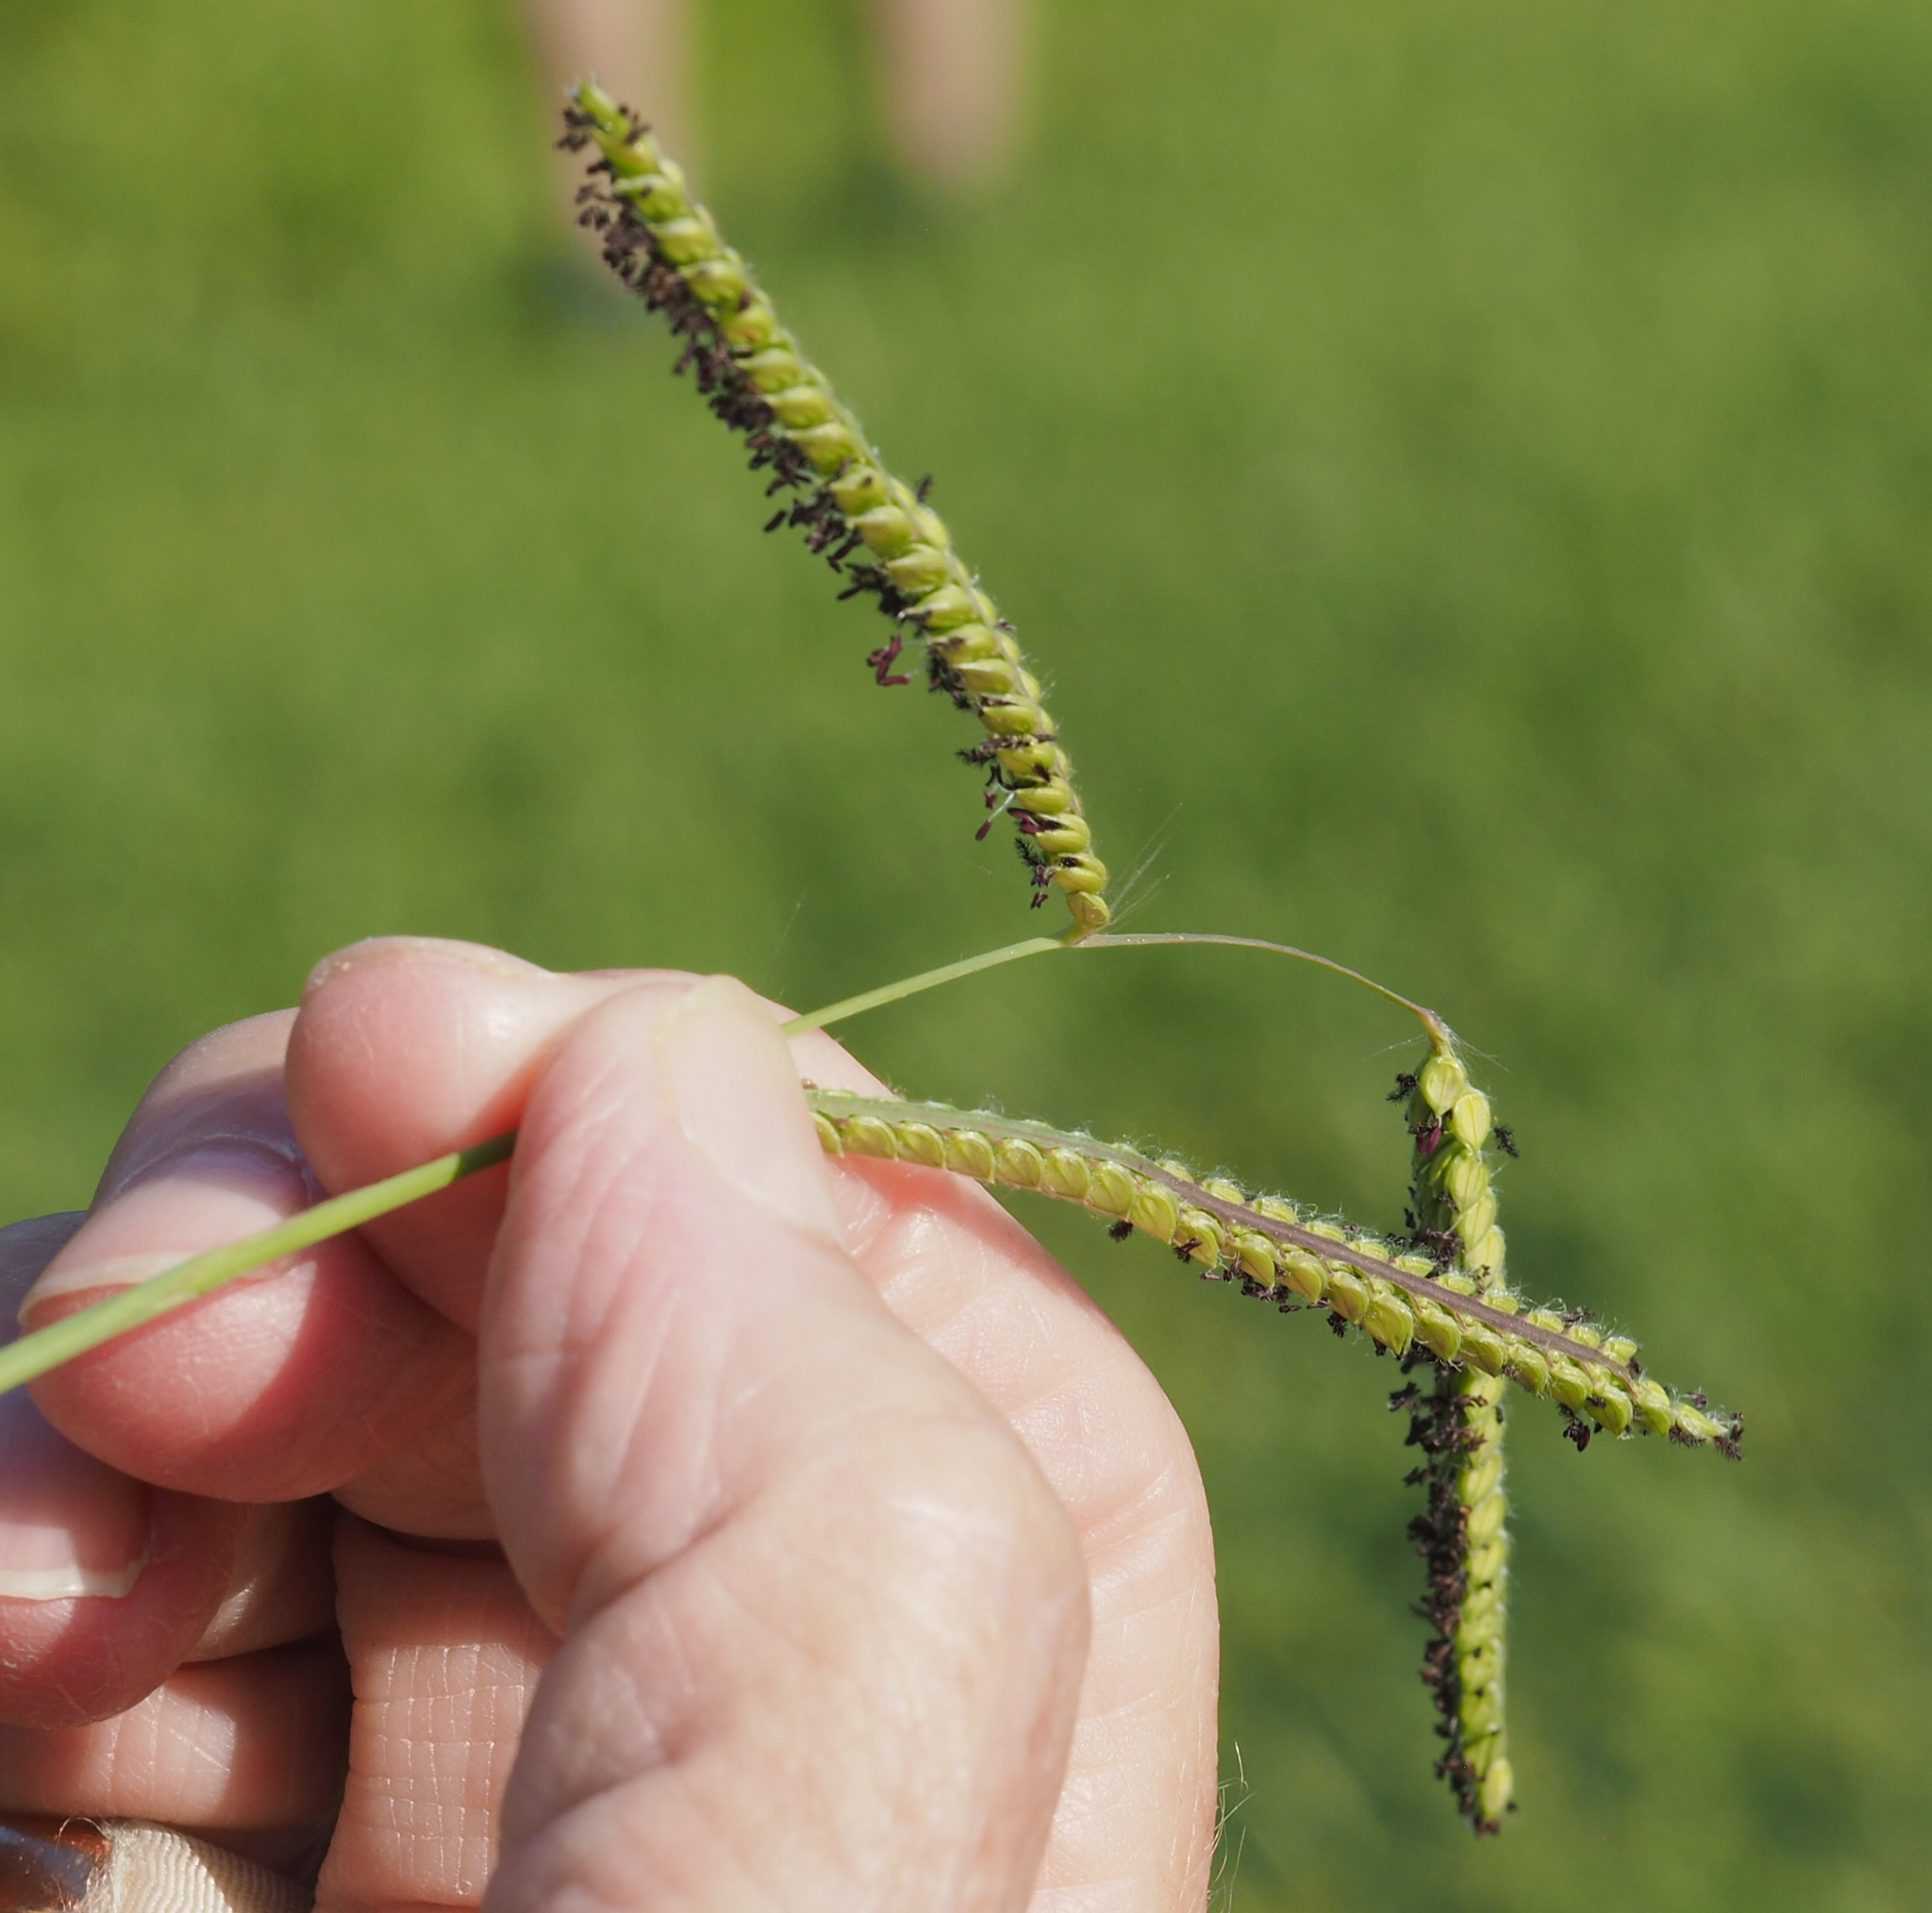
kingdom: Plantae
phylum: Tracheophyta
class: Liliopsida
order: Poales
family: Poaceae
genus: Paspalum
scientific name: Paspalum dilatatum
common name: Dallisgrass
